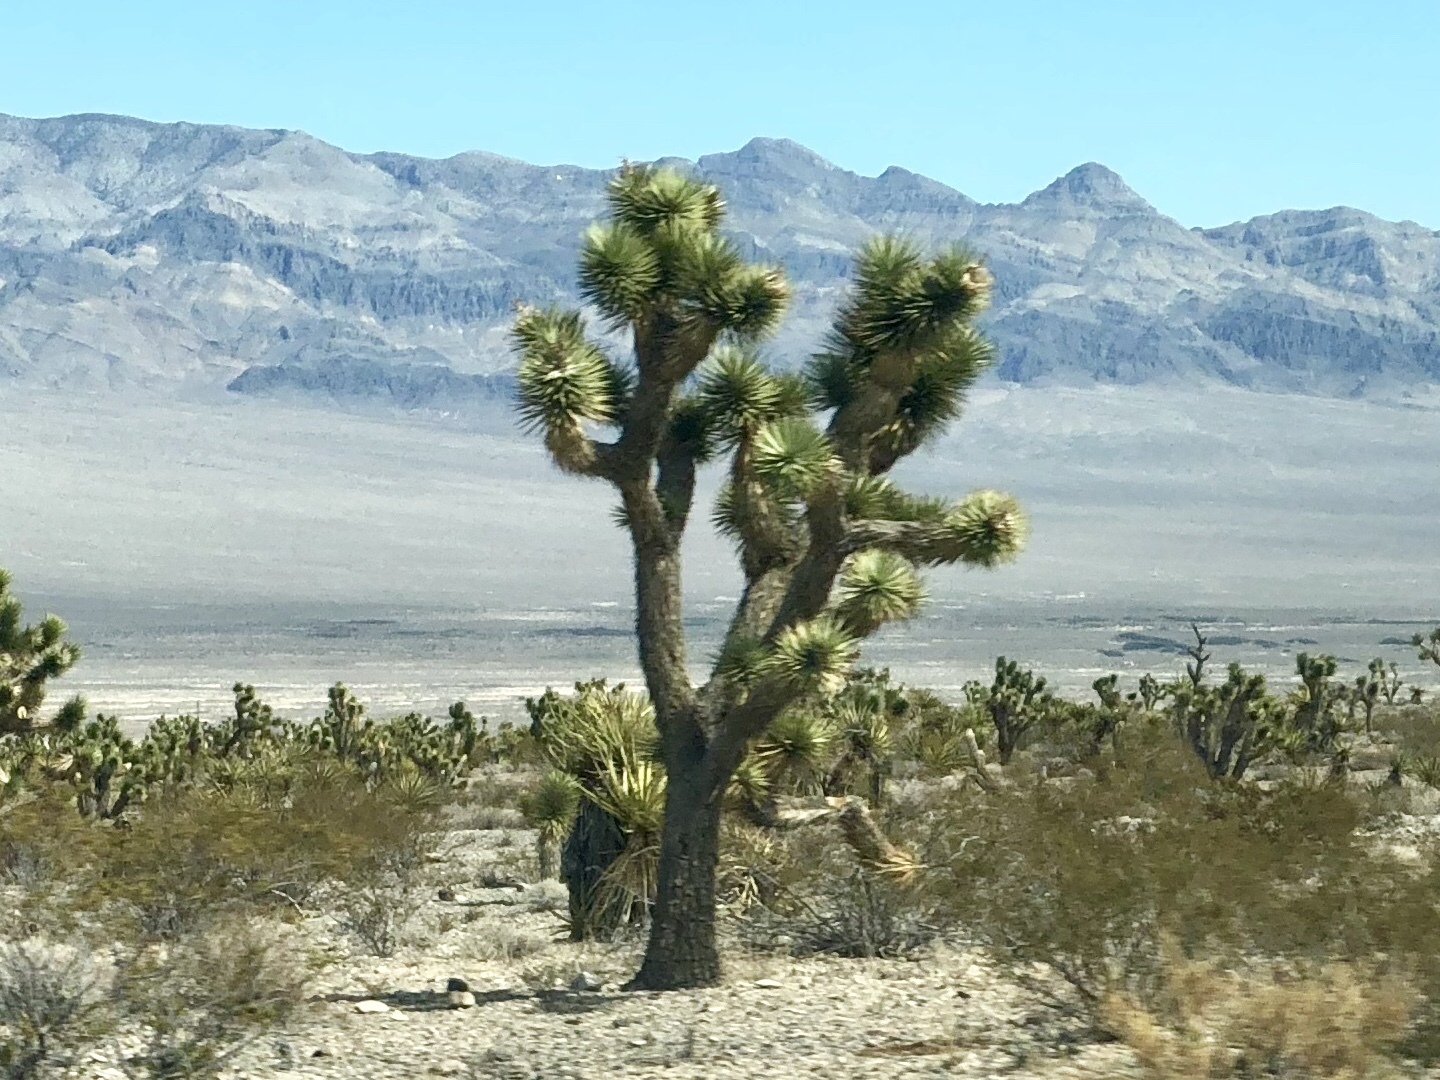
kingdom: Plantae
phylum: Tracheophyta
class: Liliopsida
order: Asparagales
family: Asparagaceae
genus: Yucca
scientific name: Yucca brevifolia
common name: Joshua tree
